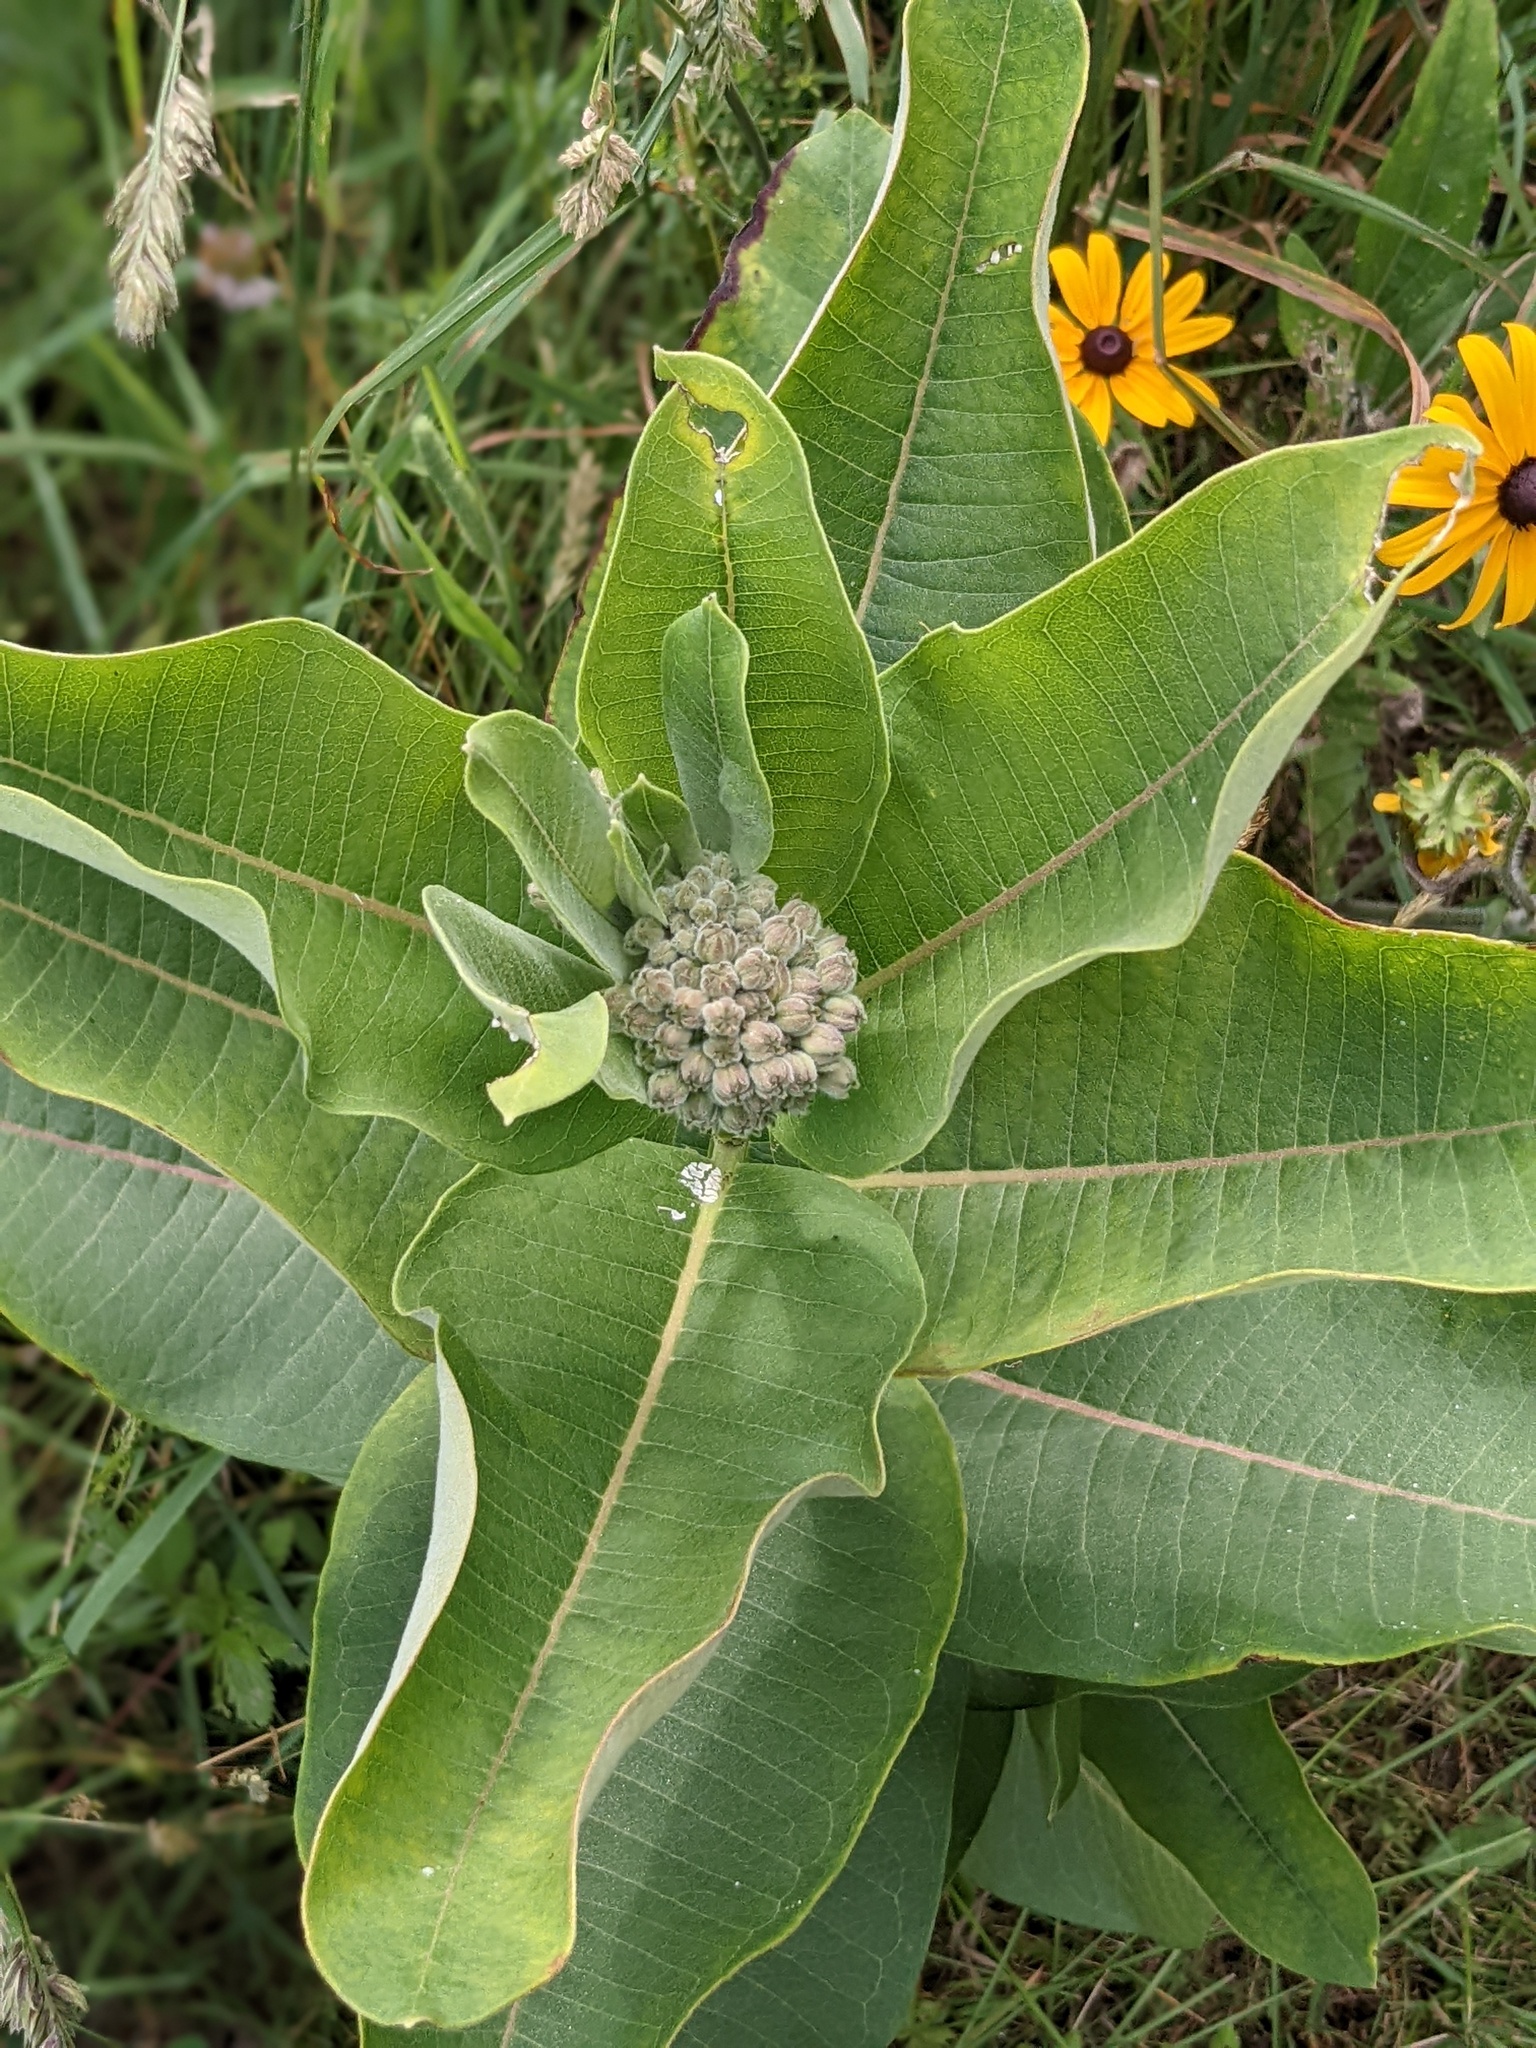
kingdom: Plantae
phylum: Tracheophyta
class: Magnoliopsida
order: Gentianales
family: Apocynaceae
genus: Asclepias
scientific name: Asclepias syriaca
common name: Common milkweed
